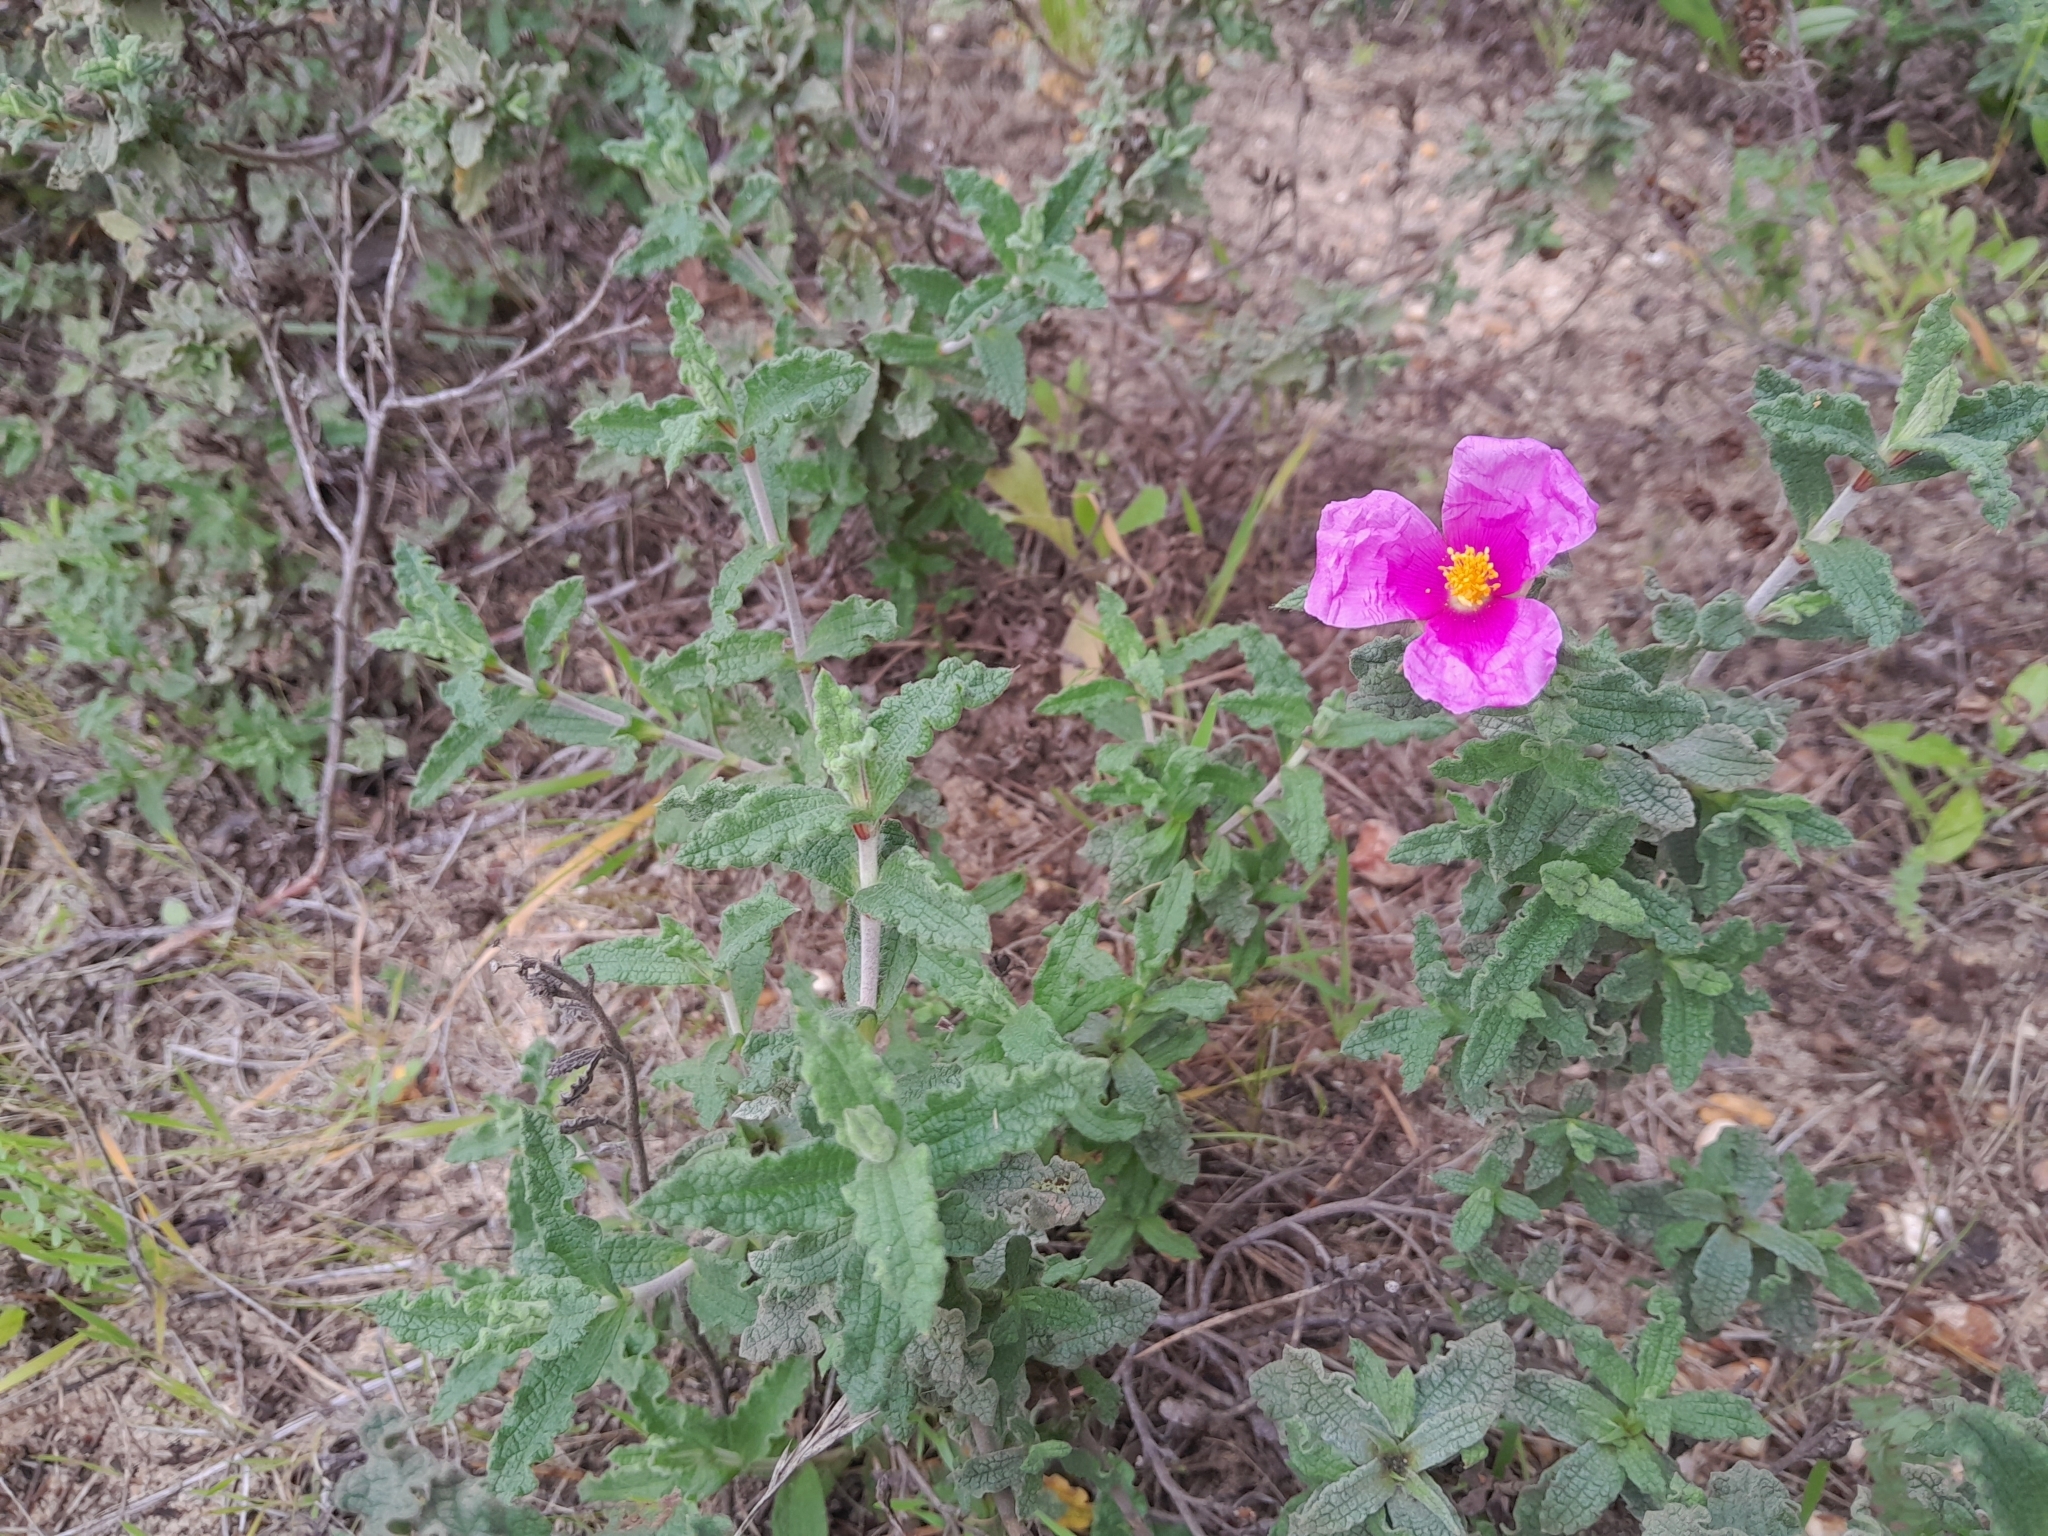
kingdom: Plantae
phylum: Tracheophyta
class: Magnoliopsida
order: Malvales
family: Cistaceae
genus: Cistus
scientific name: Cistus crispus
